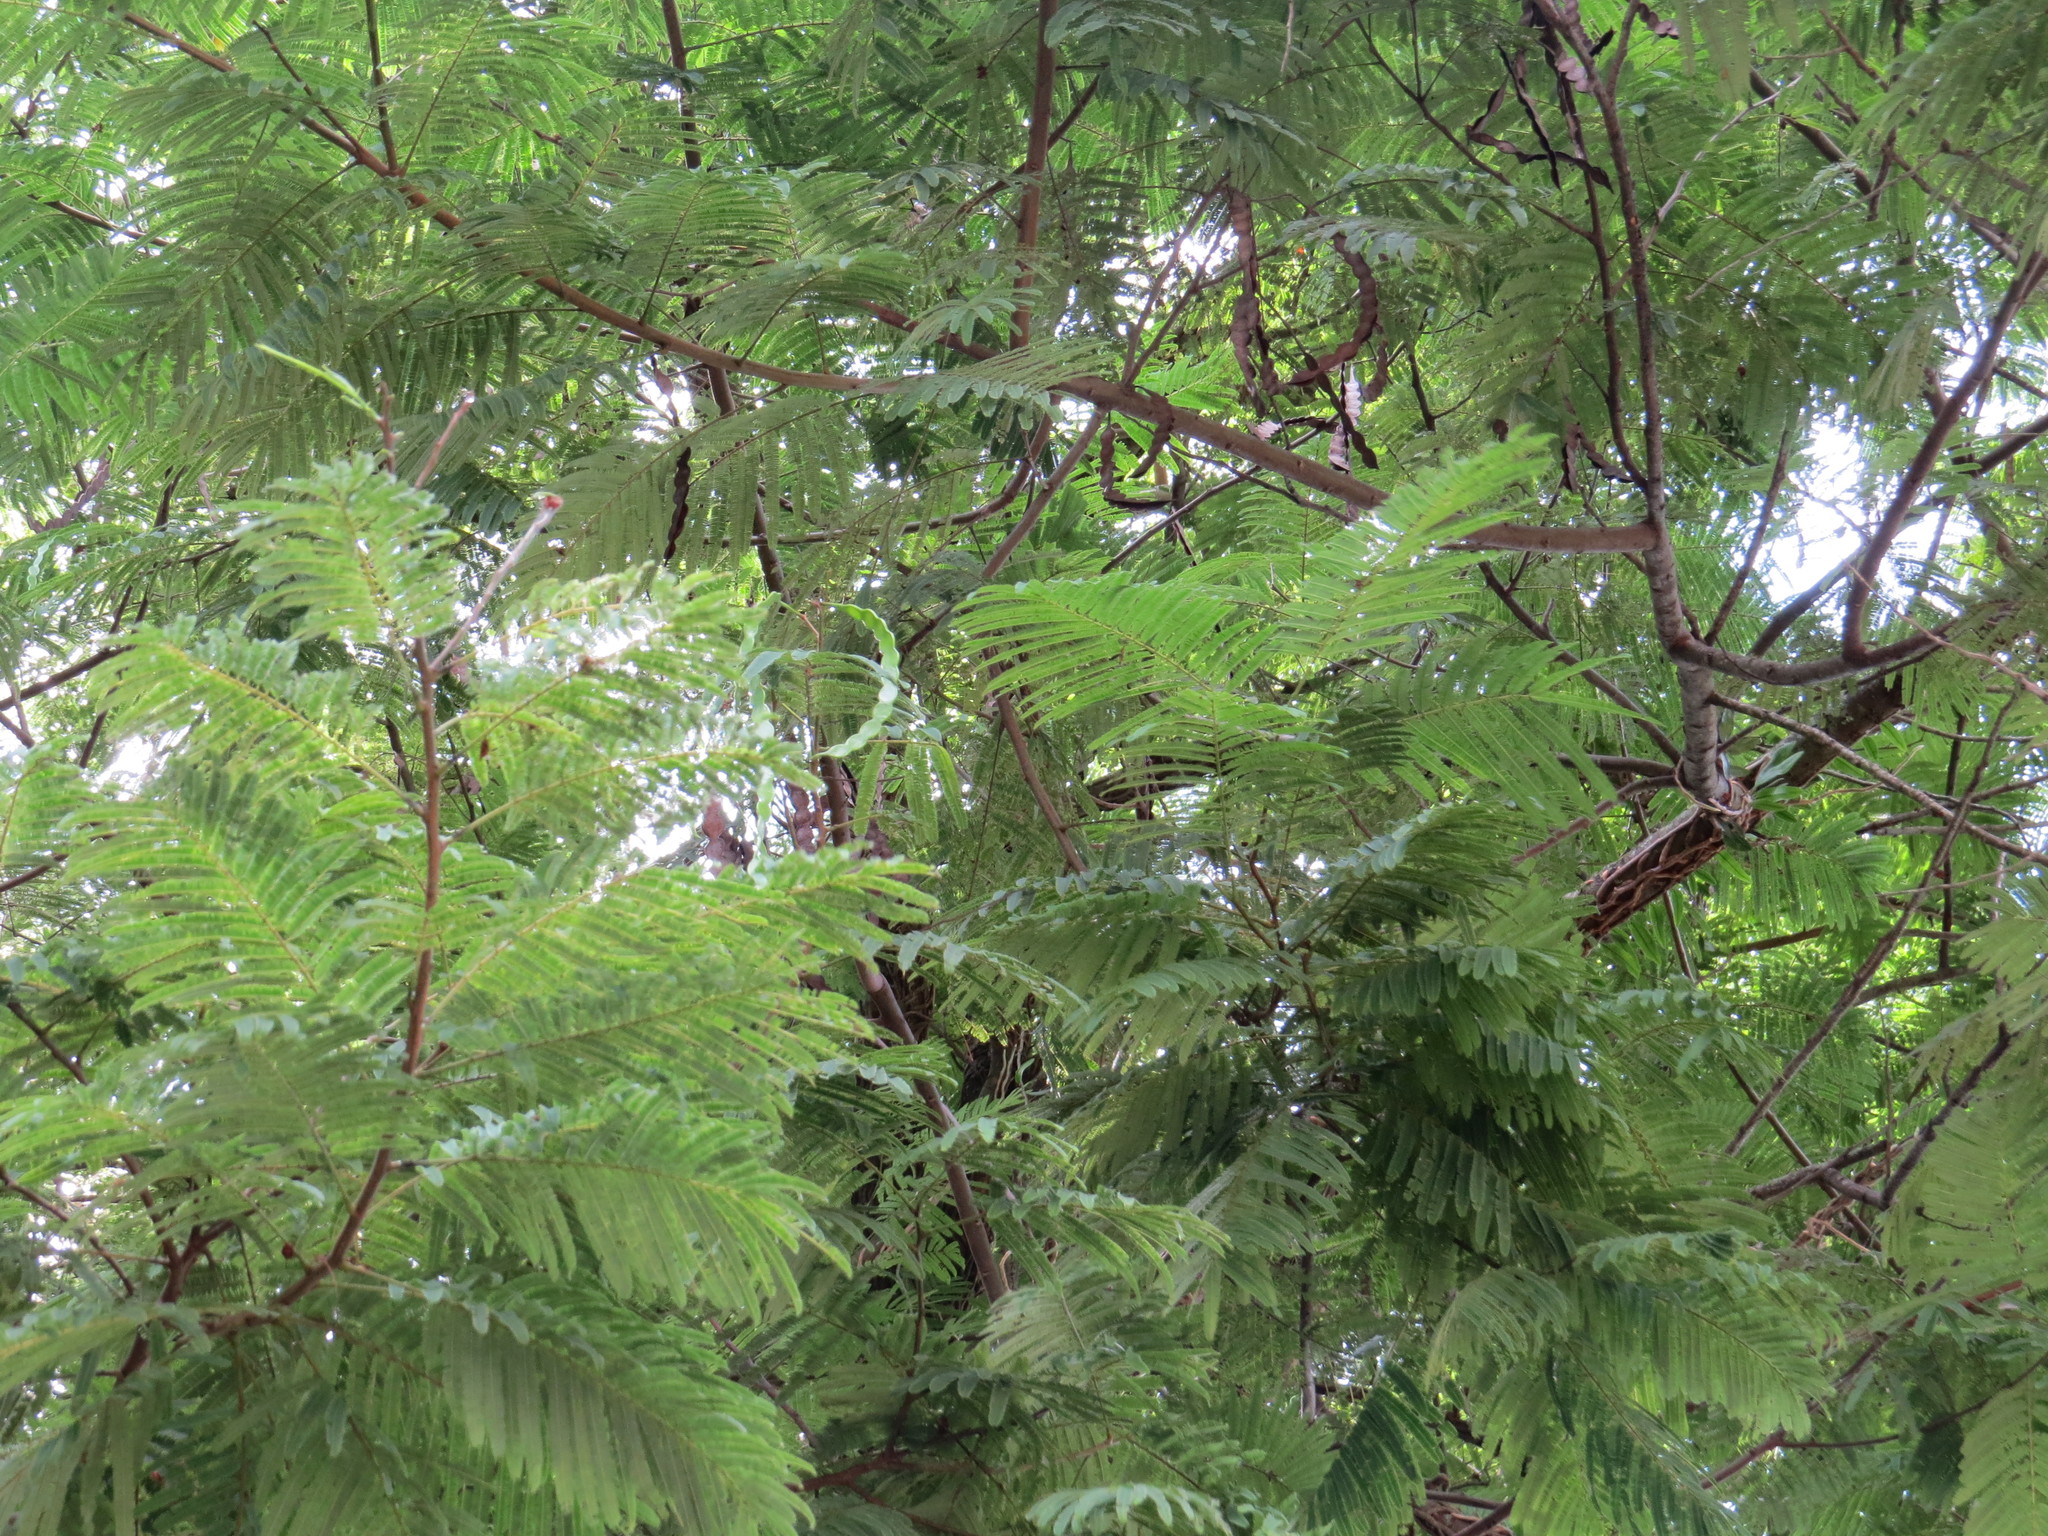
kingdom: Plantae
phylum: Tracheophyta
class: Magnoliopsida
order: Fabales
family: Fabaceae
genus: Anadenanthera
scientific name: Anadenanthera colubrina
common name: Curupay
